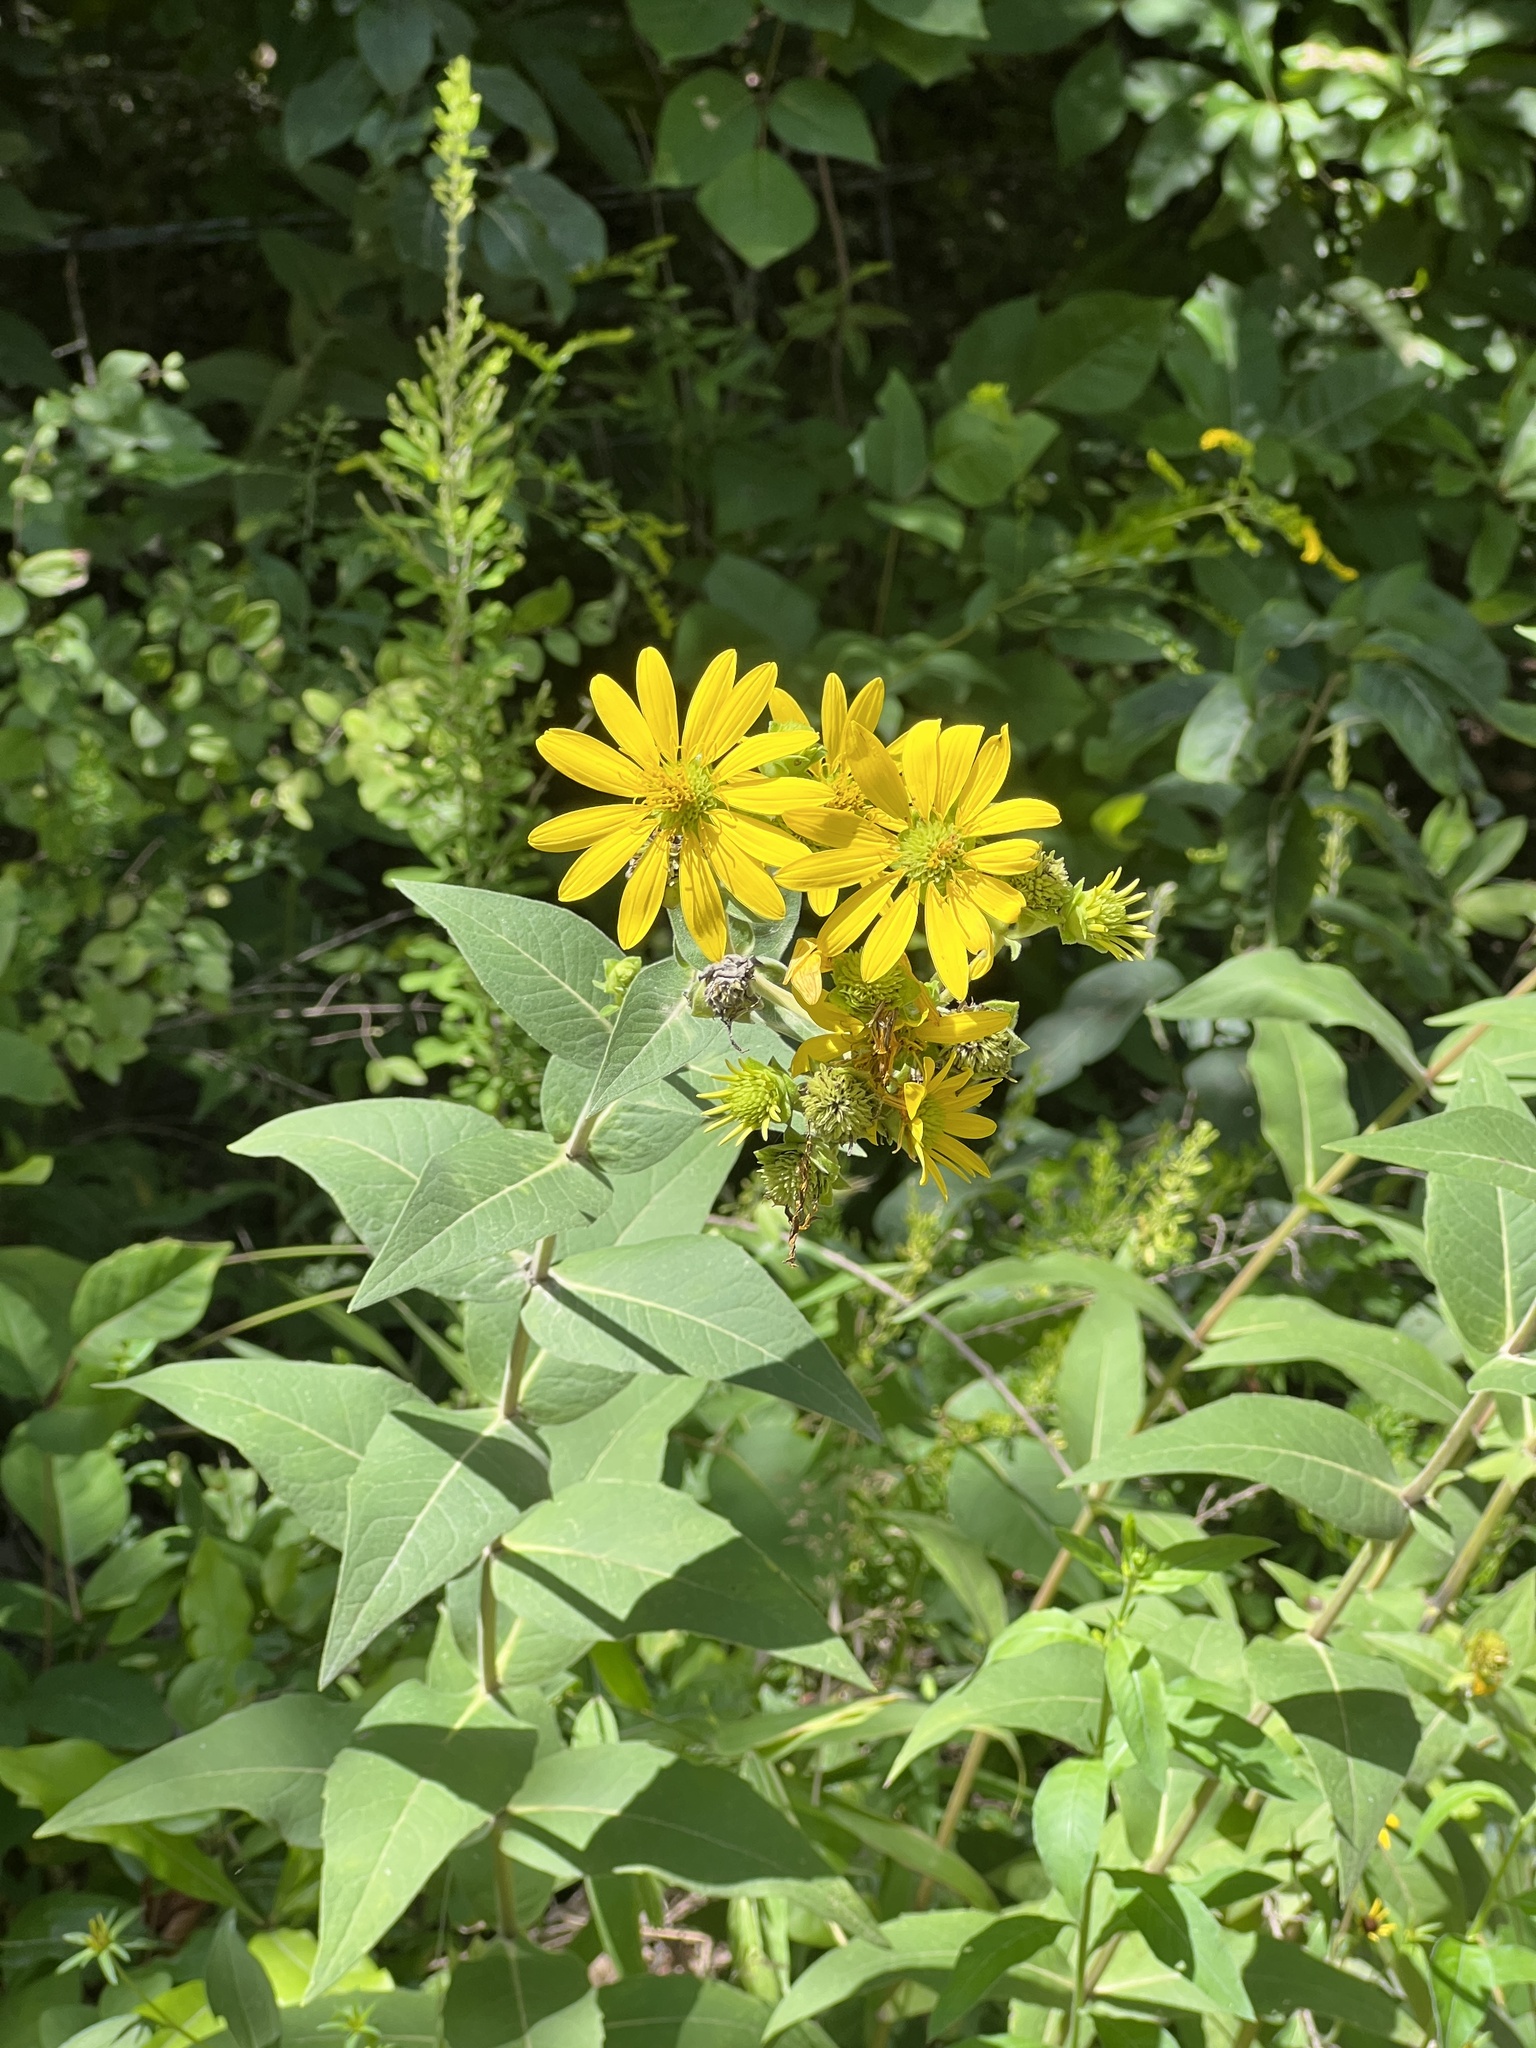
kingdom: Plantae
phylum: Tracheophyta
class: Magnoliopsida
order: Asterales
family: Asteraceae
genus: Silphium
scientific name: Silphium integrifolium
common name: Whole-leaf rosinweed
